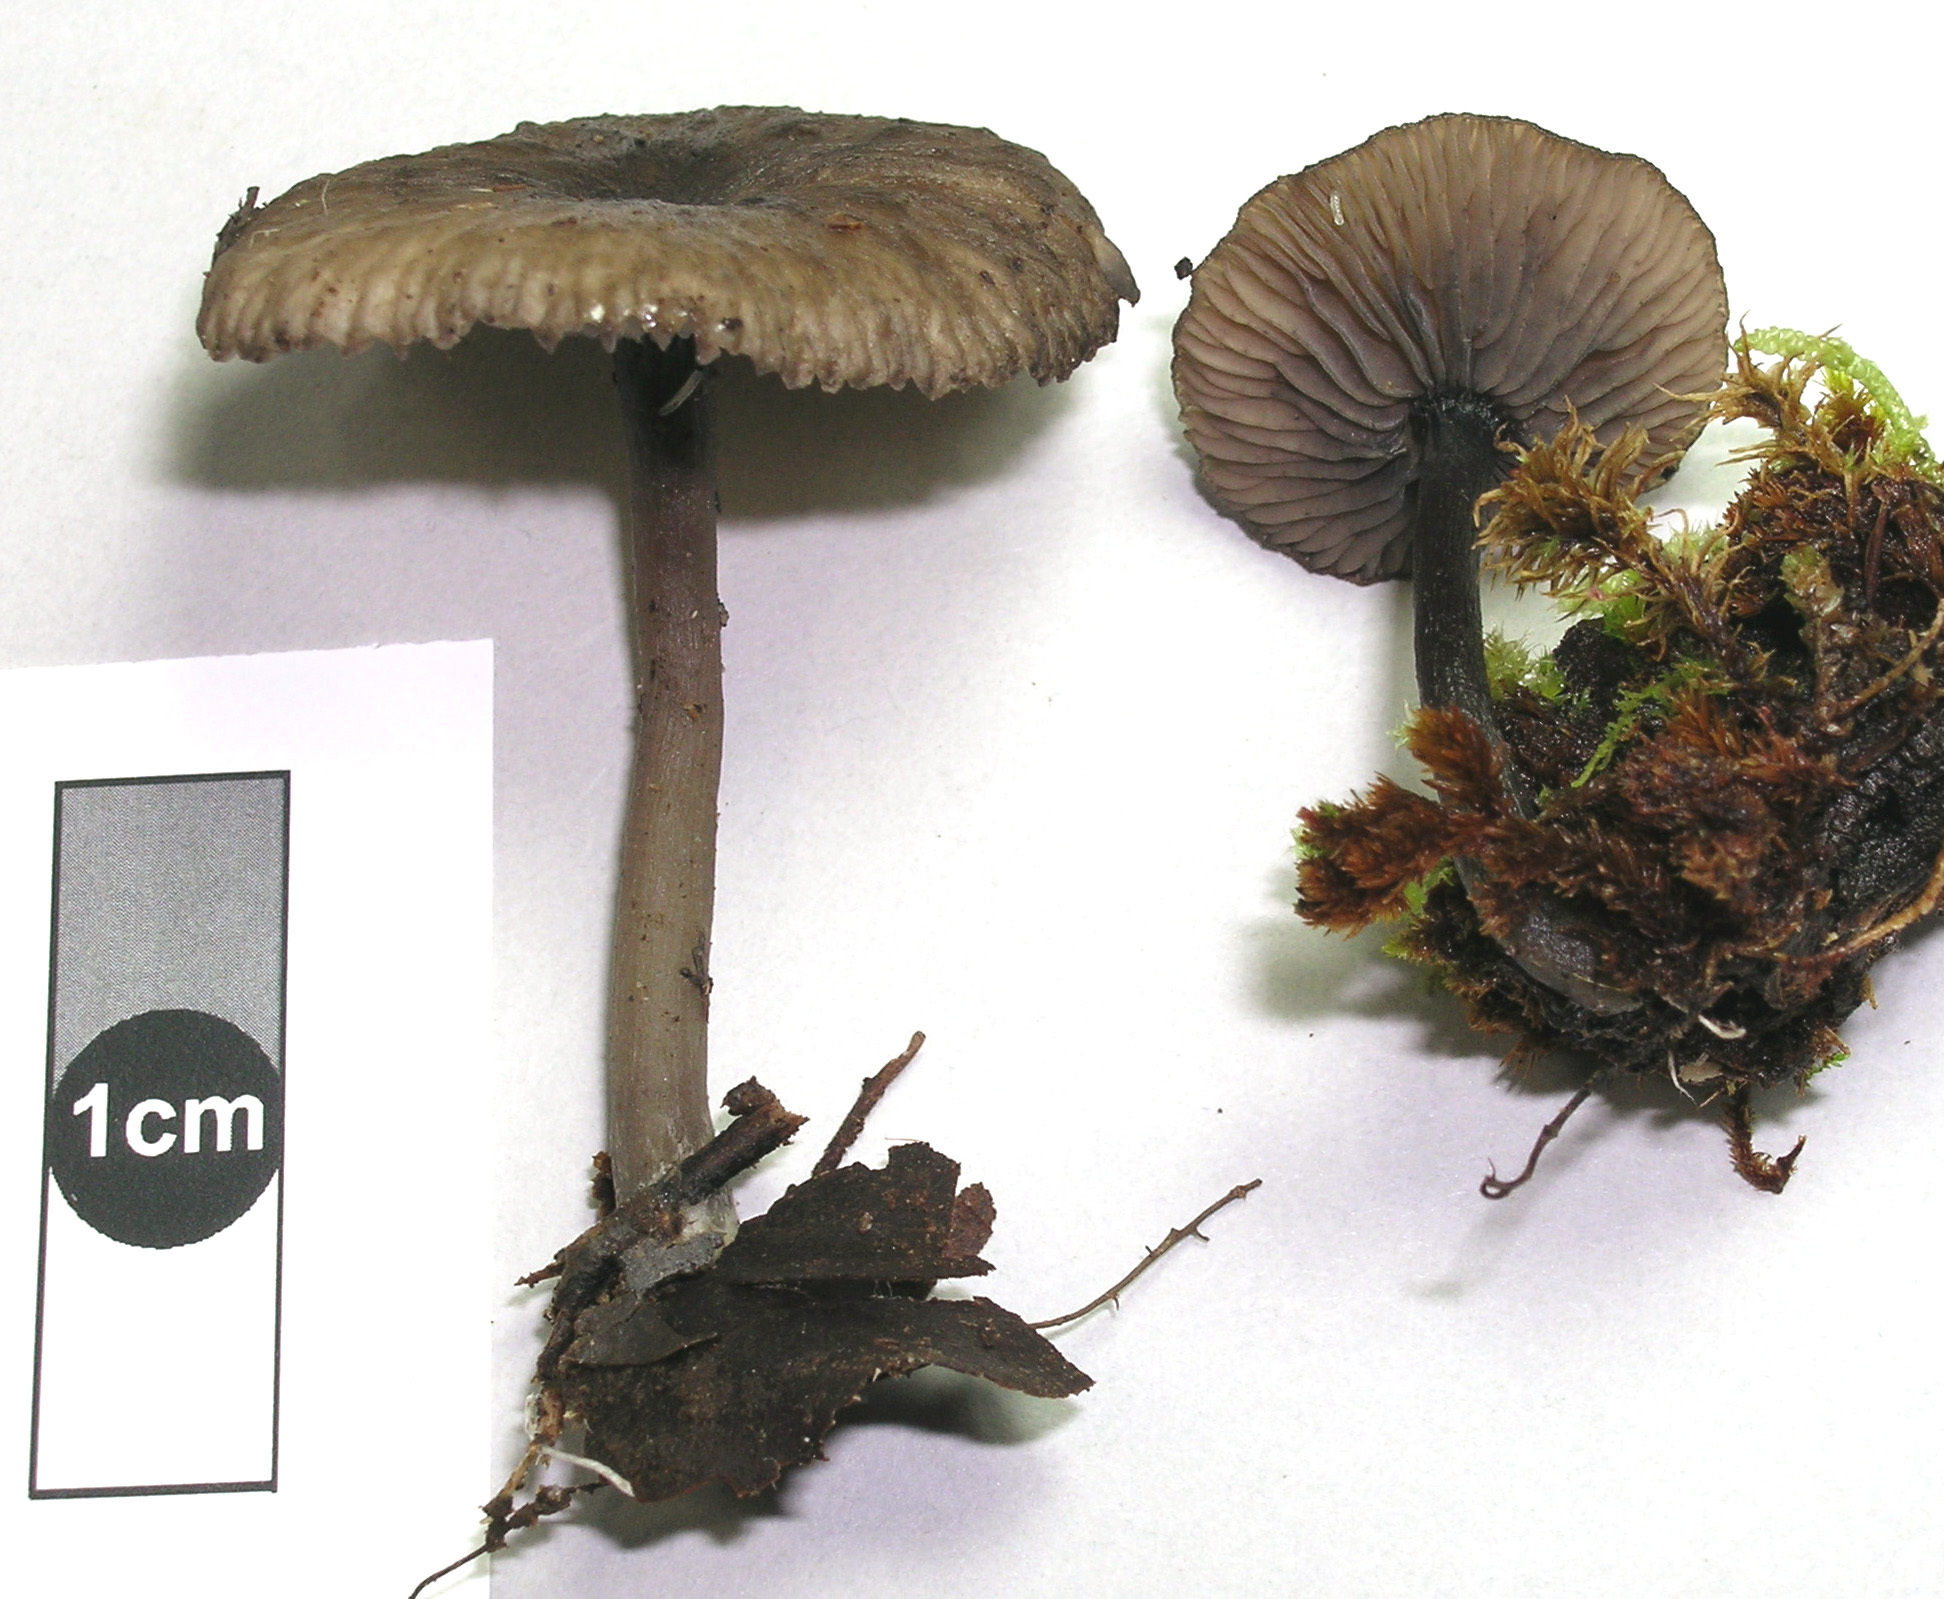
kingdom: Fungi
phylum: Basidiomycota
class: Agaricomycetes
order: Agaricales
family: Pseudoclitocybaceae
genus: Pseudoclitocybe
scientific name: Pseudoclitocybe foetida
